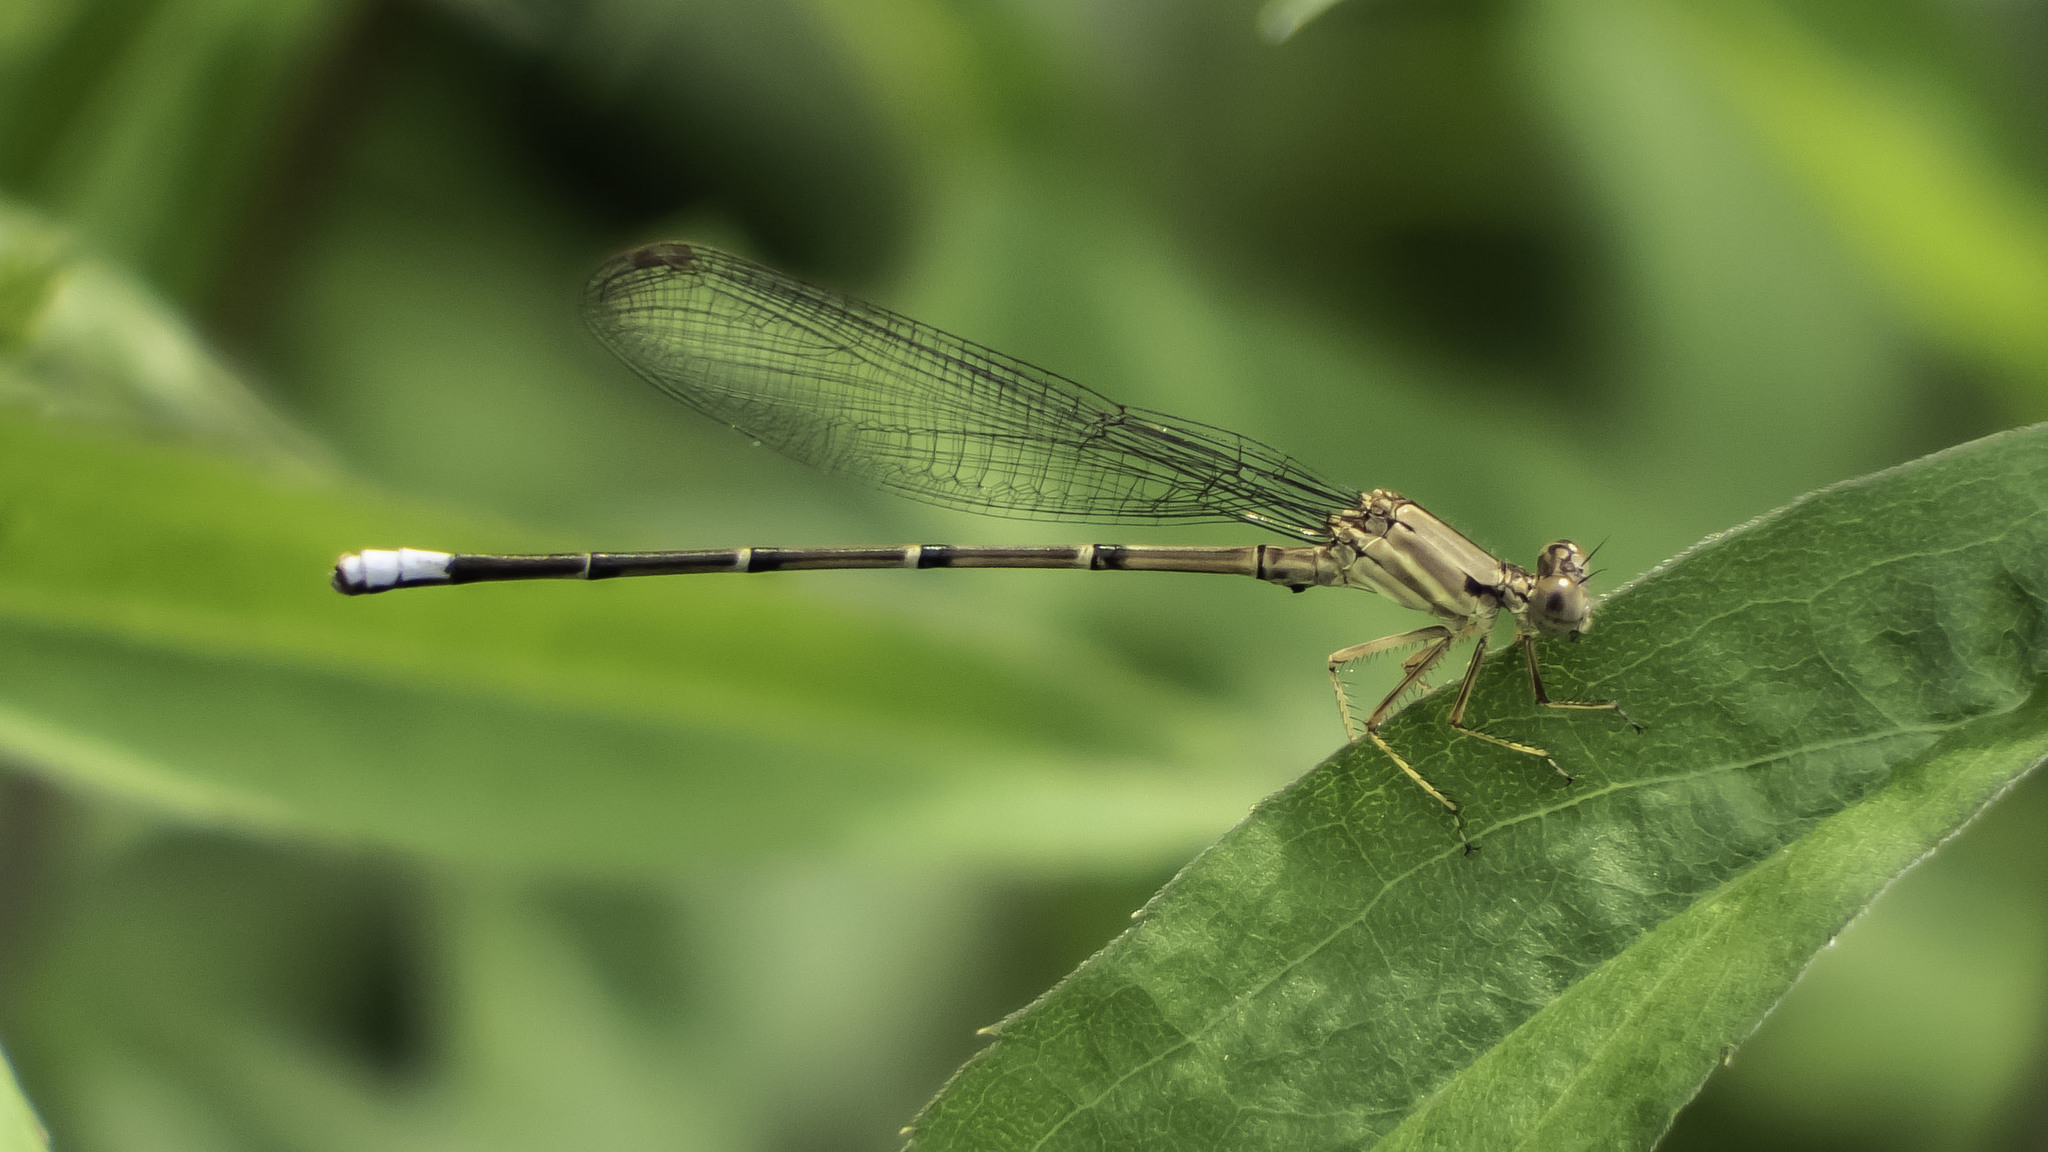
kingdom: Animalia
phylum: Arthropoda
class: Insecta
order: Odonata
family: Coenagrionidae
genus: Argia
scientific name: Argia apicalis
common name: Blue-fronted dancer
